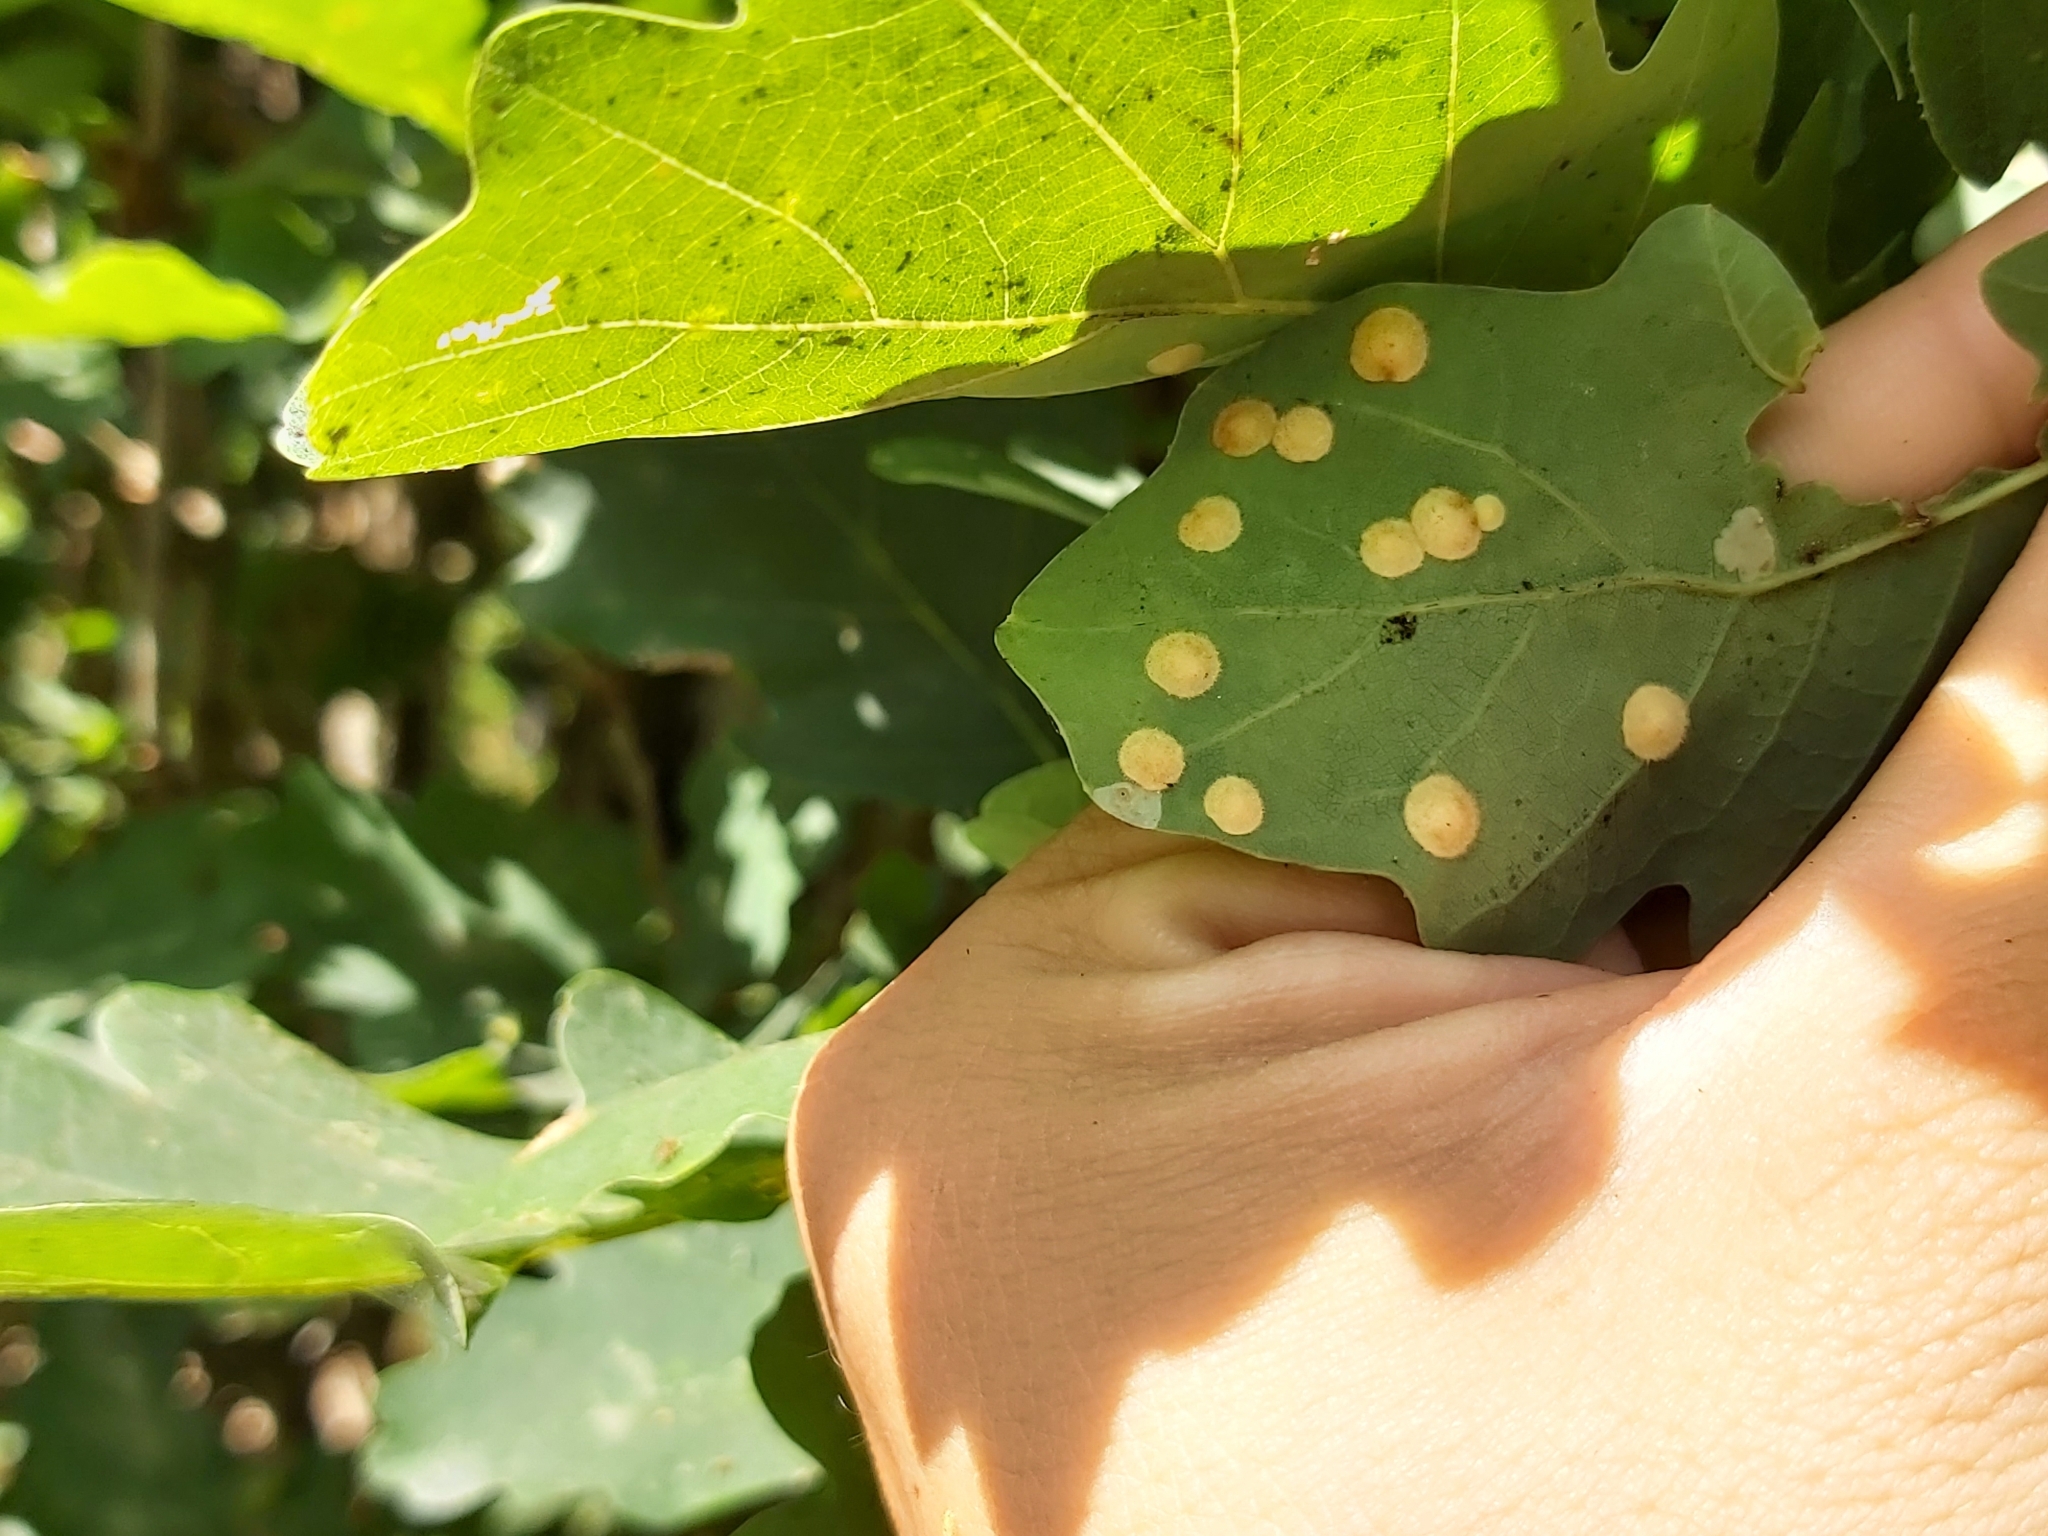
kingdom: Animalia
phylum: Arthropoda
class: Insecta
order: Hymenoptera
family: Cynipidae
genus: Neuroterus
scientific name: Neuroterus quercusbaccarum
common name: Common spangle gall
